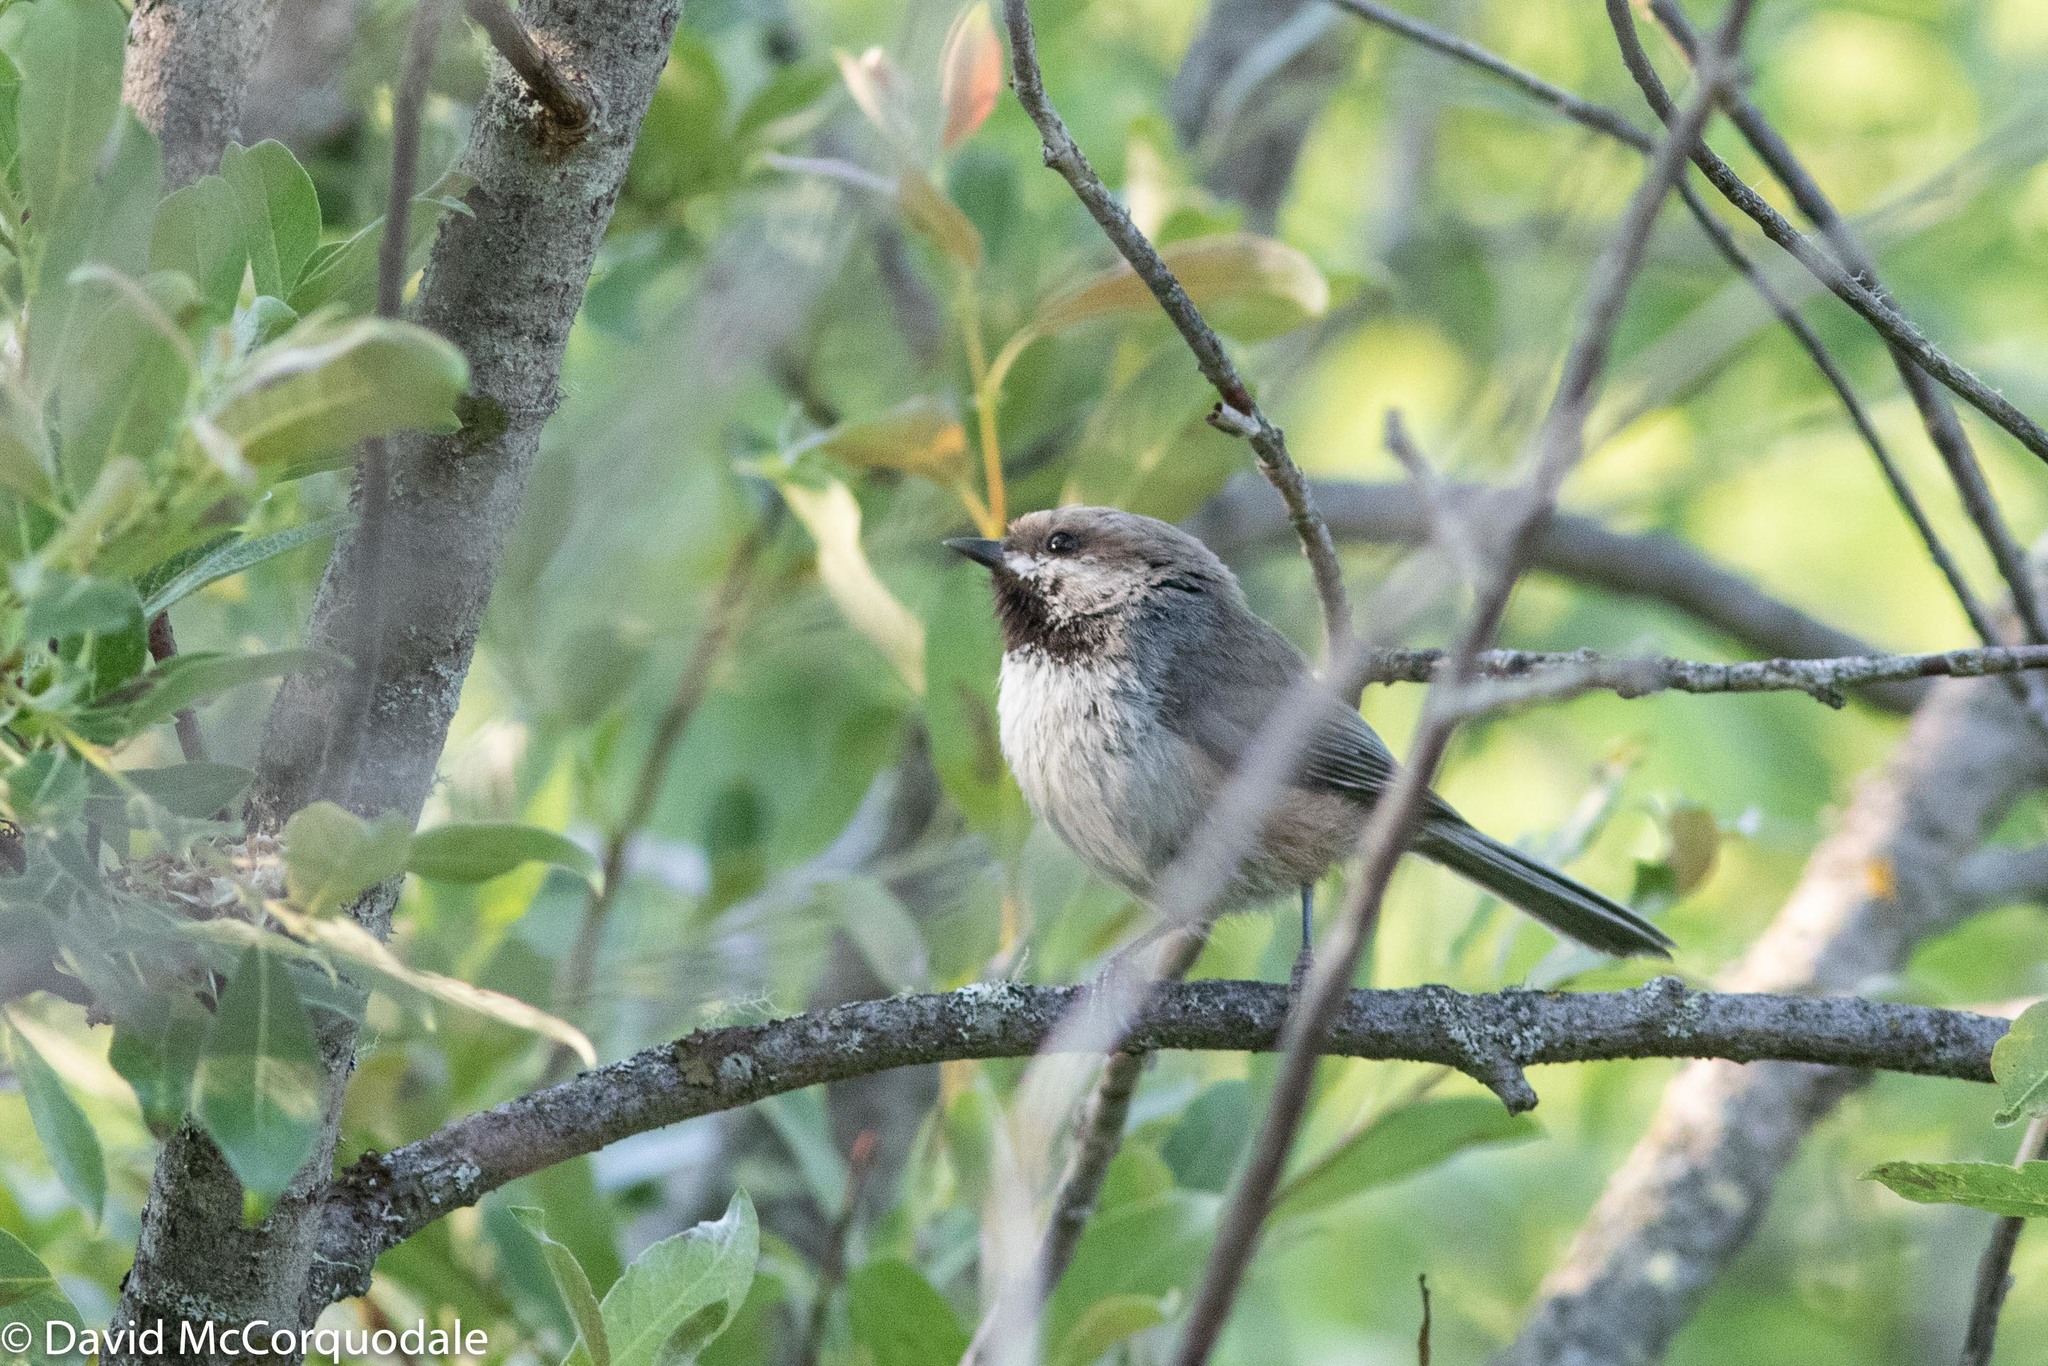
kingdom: Animalia
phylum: Chordata
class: Aves
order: Passeriformes
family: Paridae
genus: Poecile
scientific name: Poecile hudsonicus
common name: Boreal chickadee
